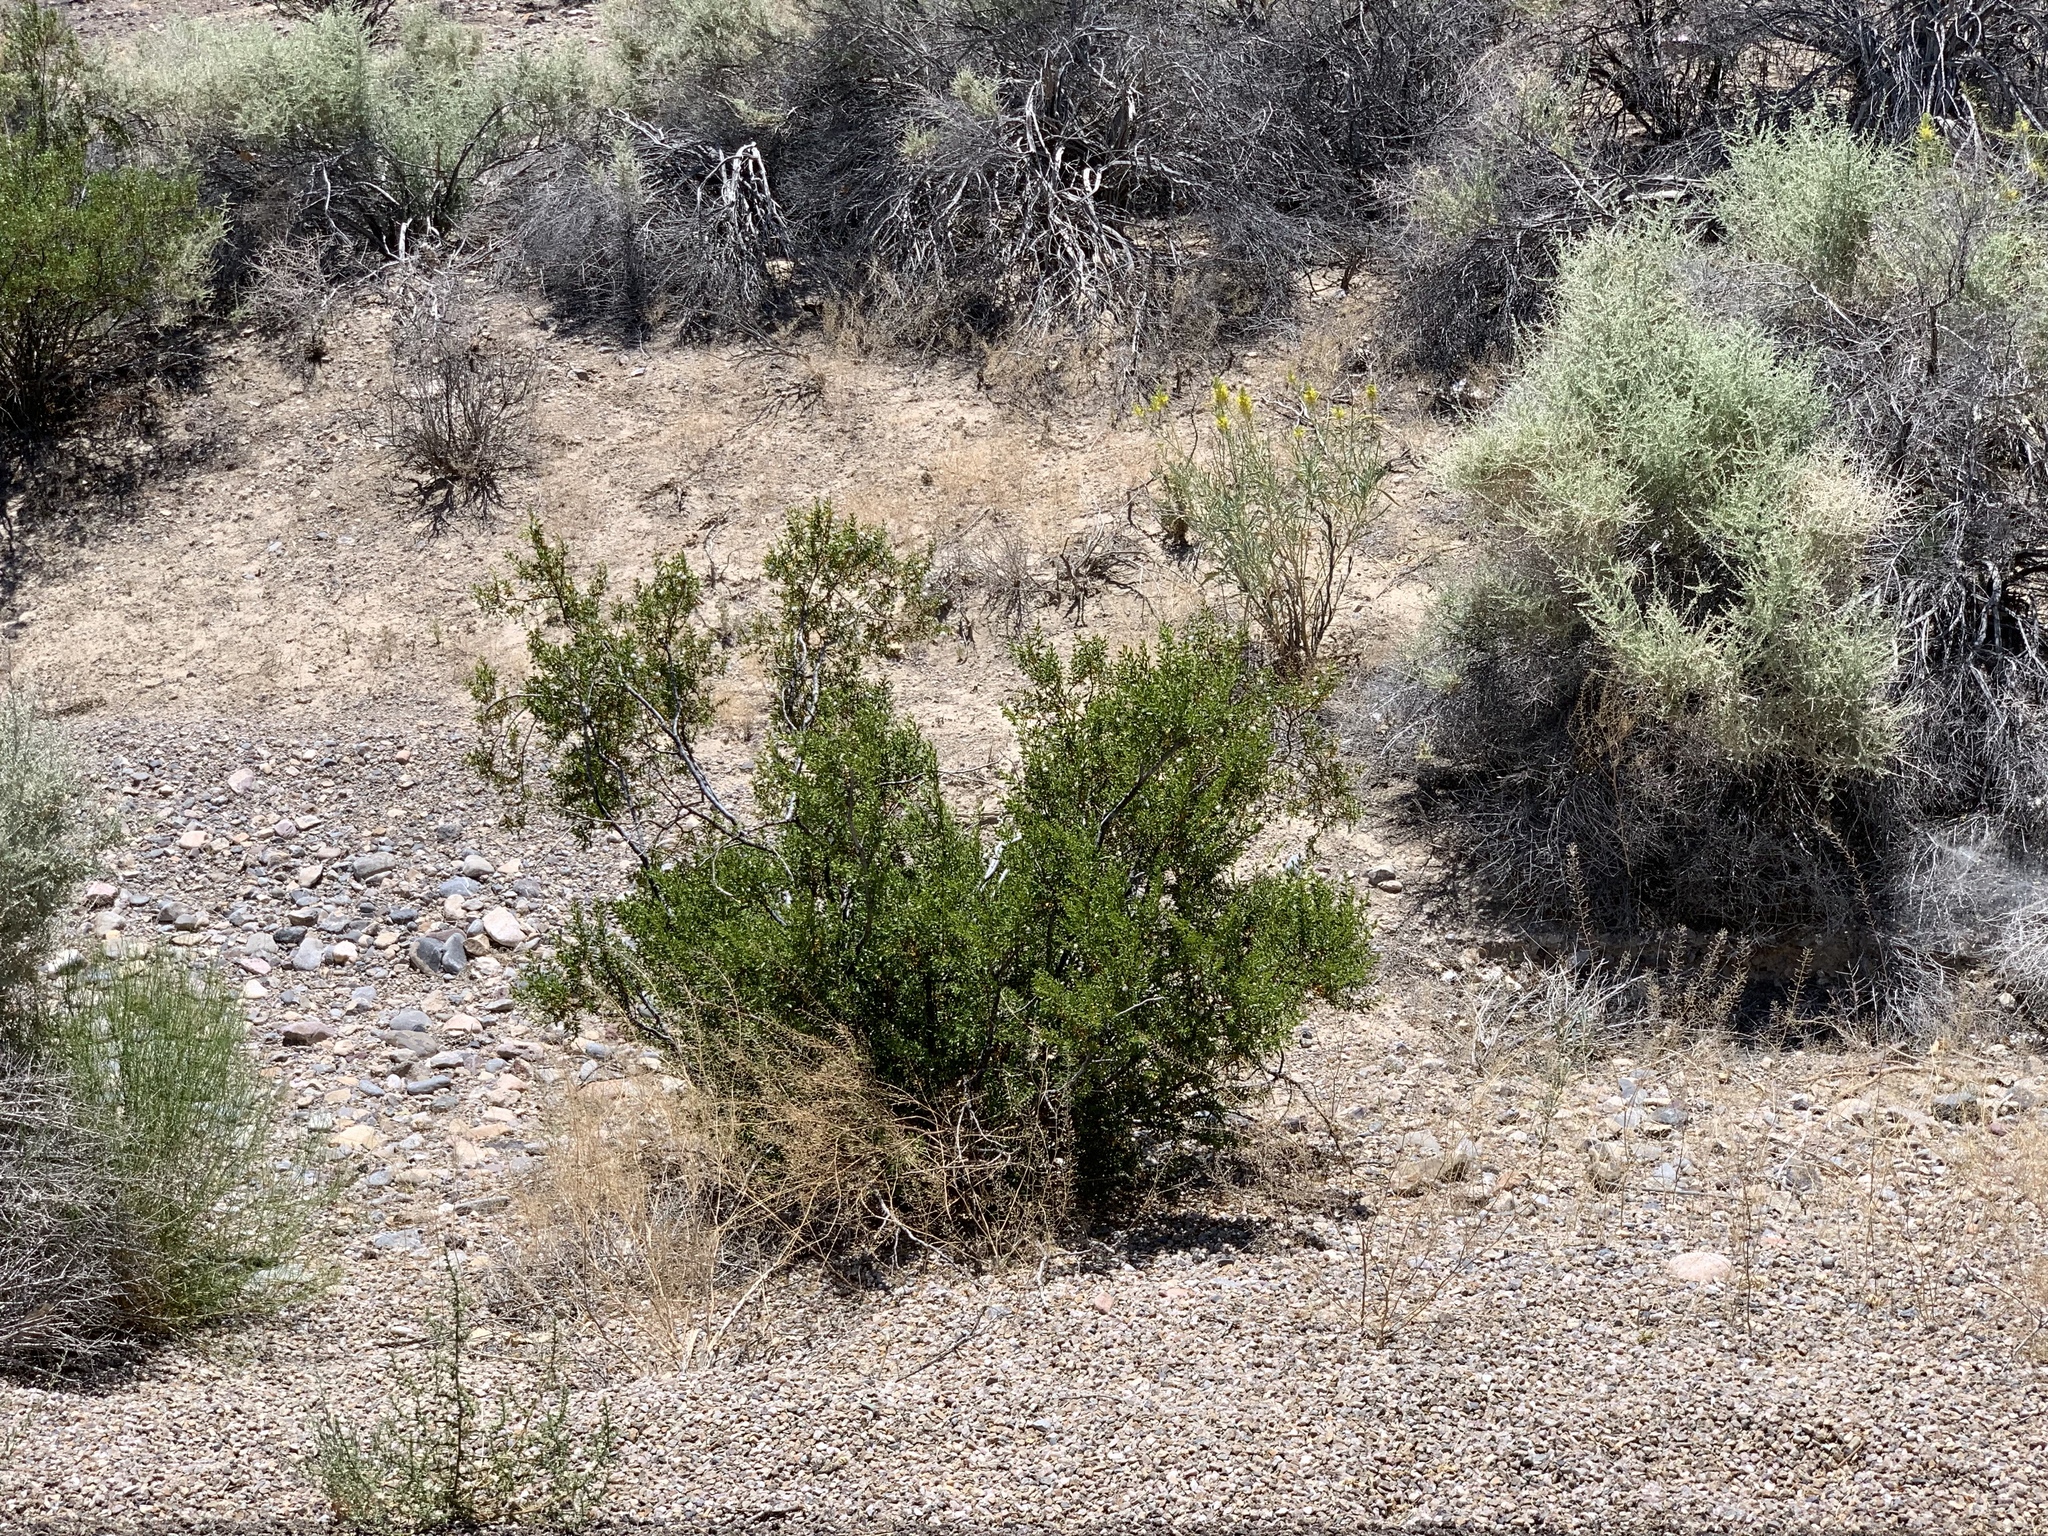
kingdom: Plantae
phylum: Tracheophyta
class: Magnoliopsida
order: Zygophyllales
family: Zygophyllaceae
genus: Larrea
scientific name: Larrea tridentata
